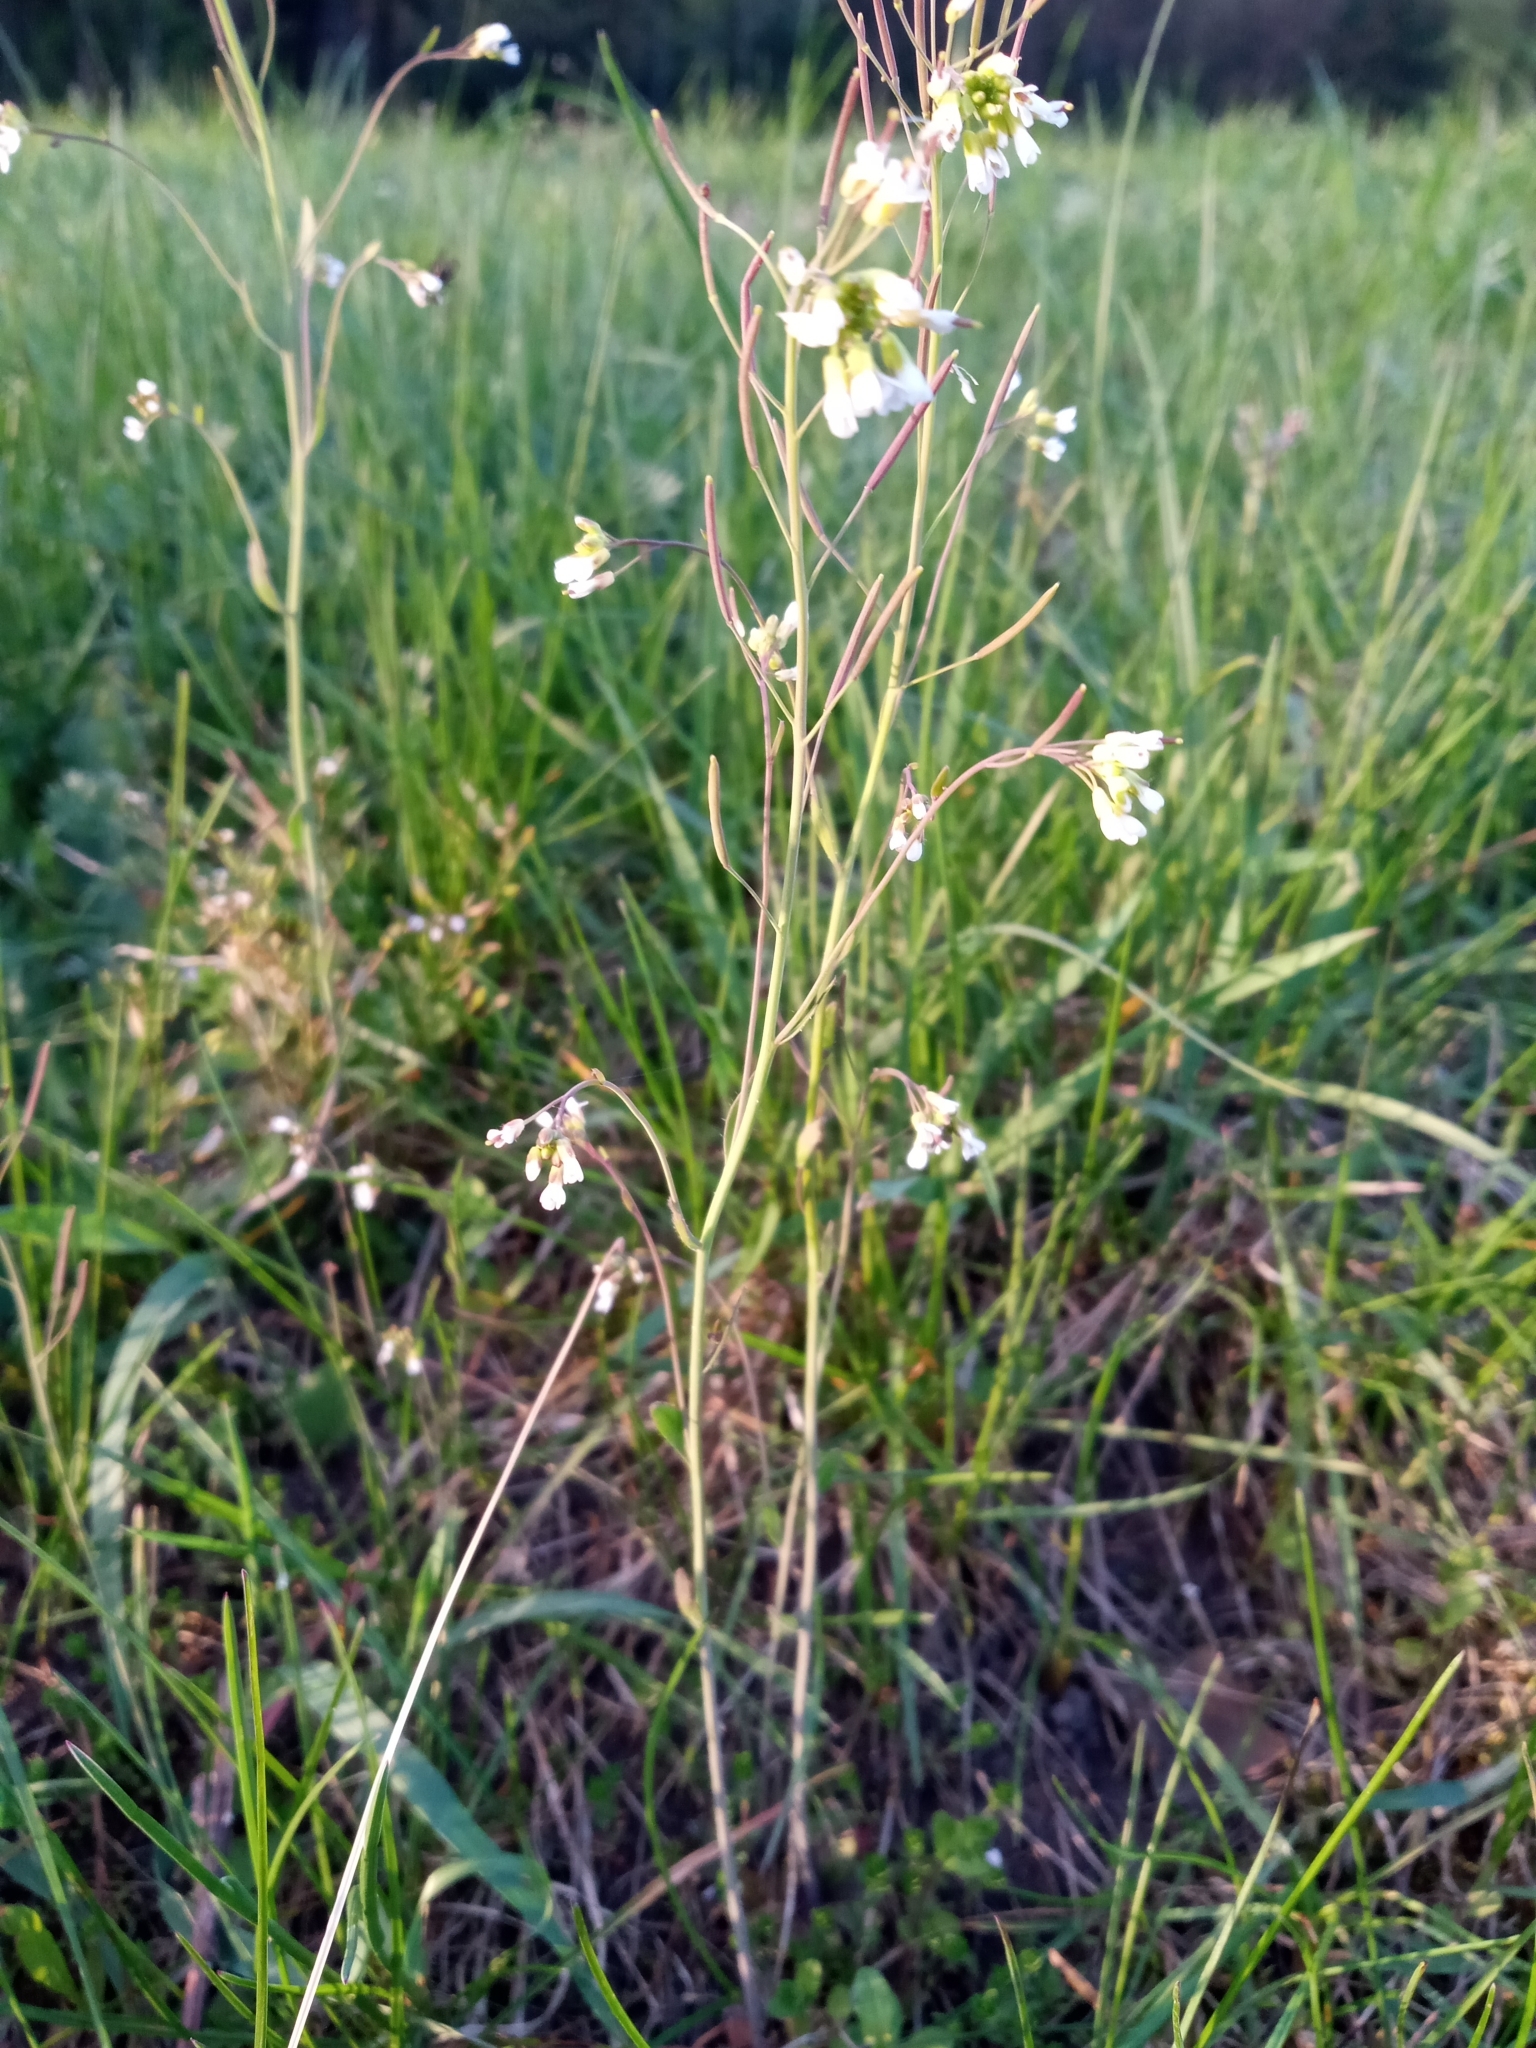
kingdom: Plantae
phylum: Tracheophyta
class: Magnoliopsida
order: Brassicales
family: Brassicaceae
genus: Arabidopsis
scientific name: Arabidopsis thaliana
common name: Thale cress
